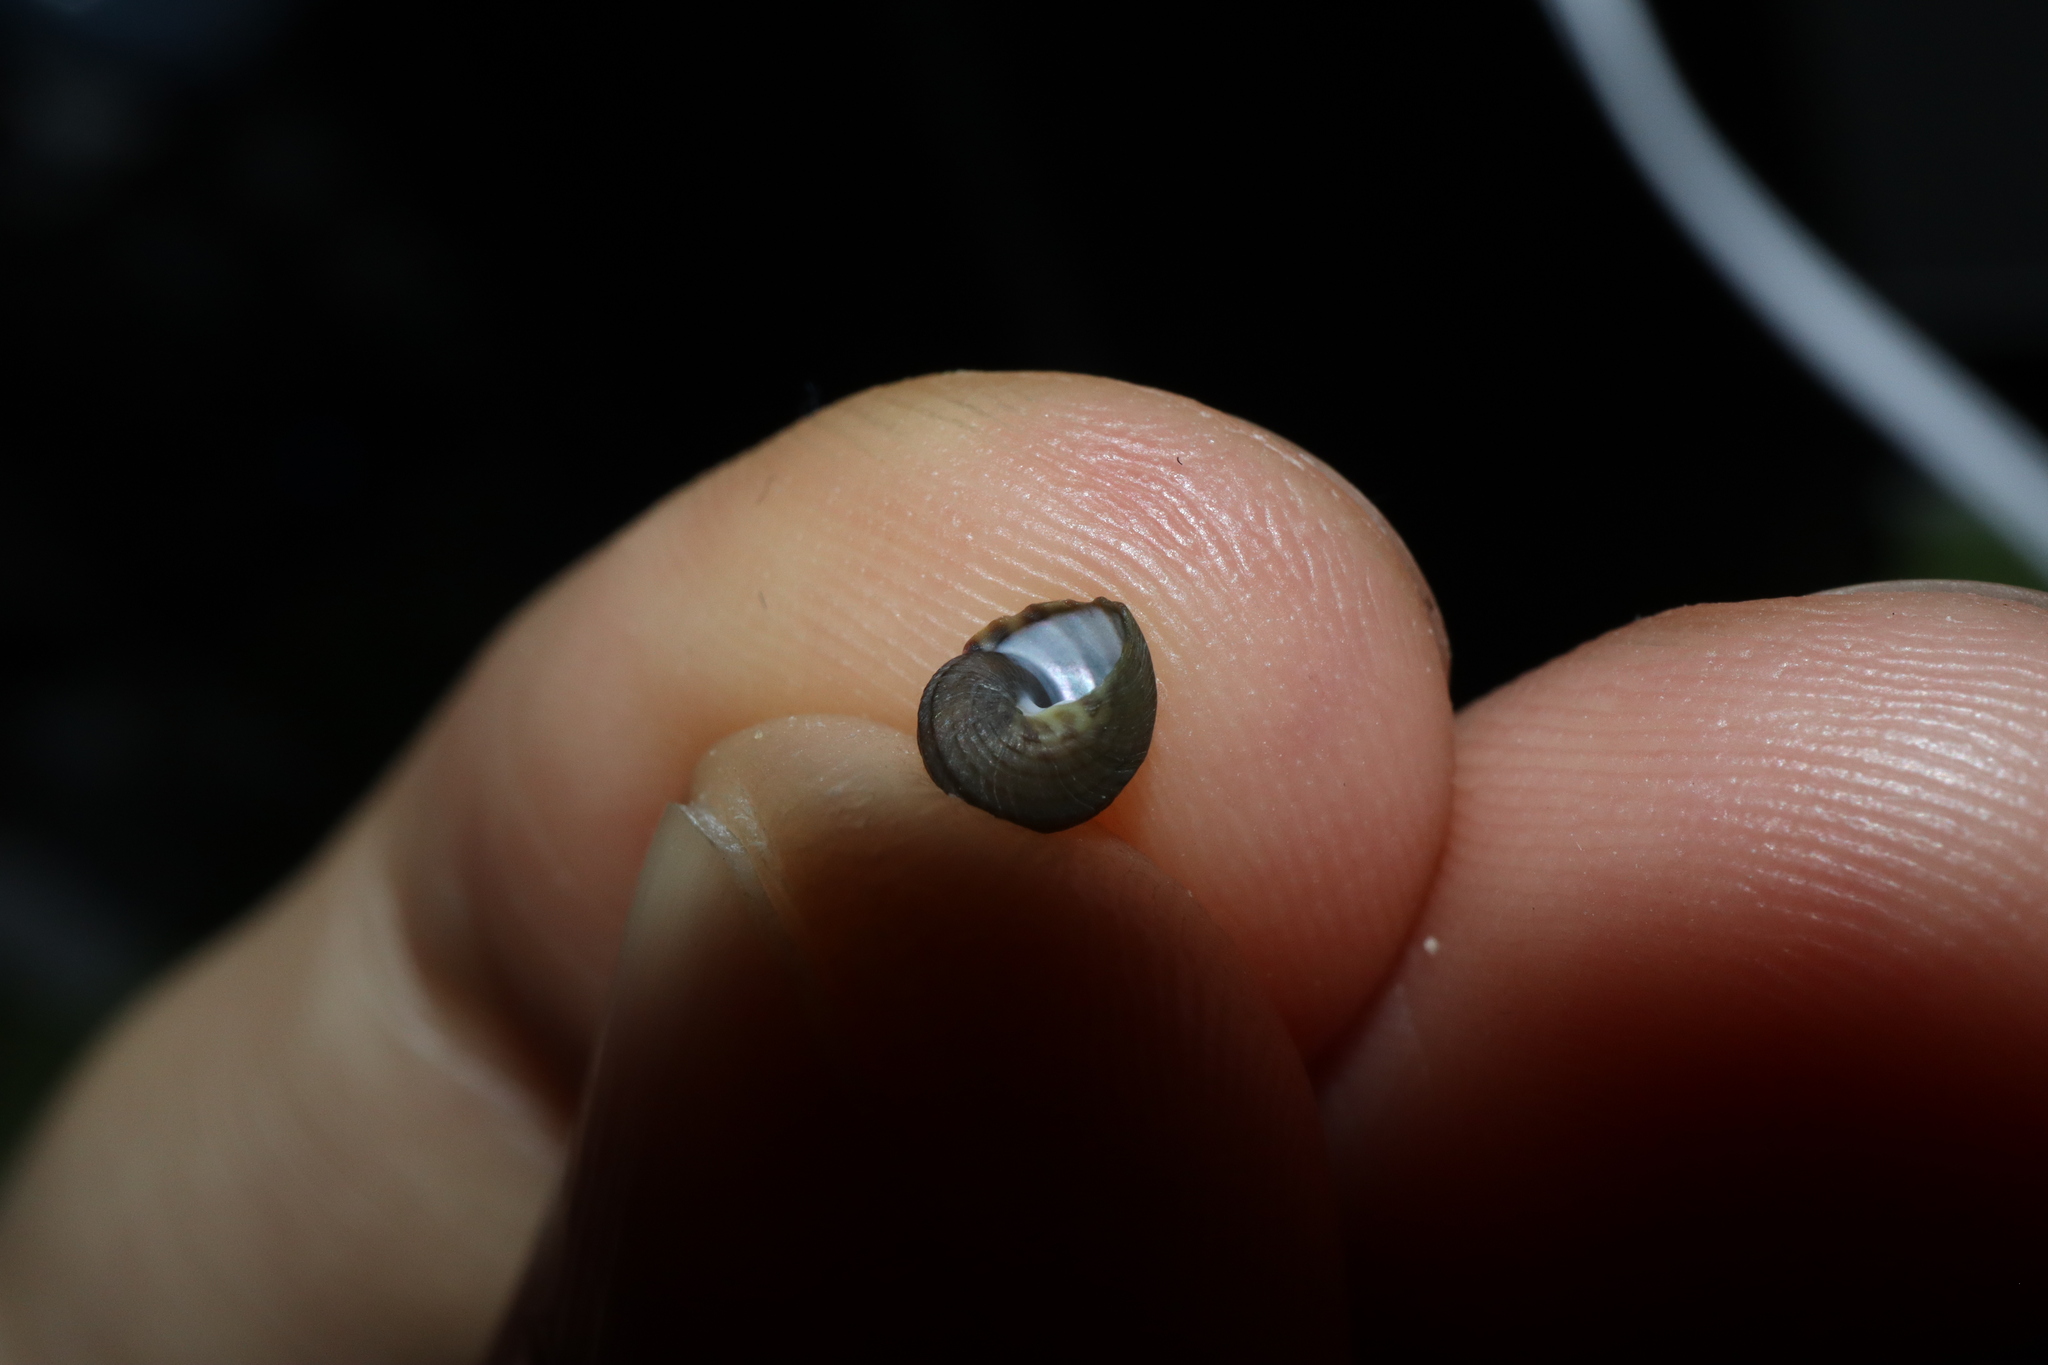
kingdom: Animalia
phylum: Mollusca
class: Gastropoda
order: Trochida
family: Trochidae
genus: Austrocochlea
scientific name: Austrocochlea constricta
